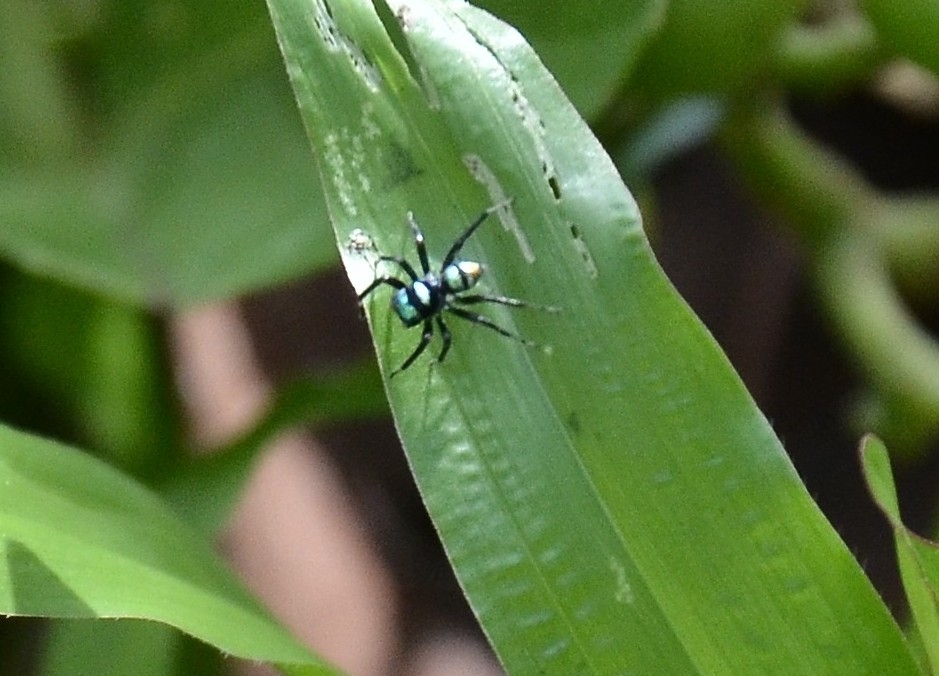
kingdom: Animalia
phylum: Arthropoda
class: Arachnida
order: Araneae
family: Salticidae
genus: Phintella
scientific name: Phintella vittata
